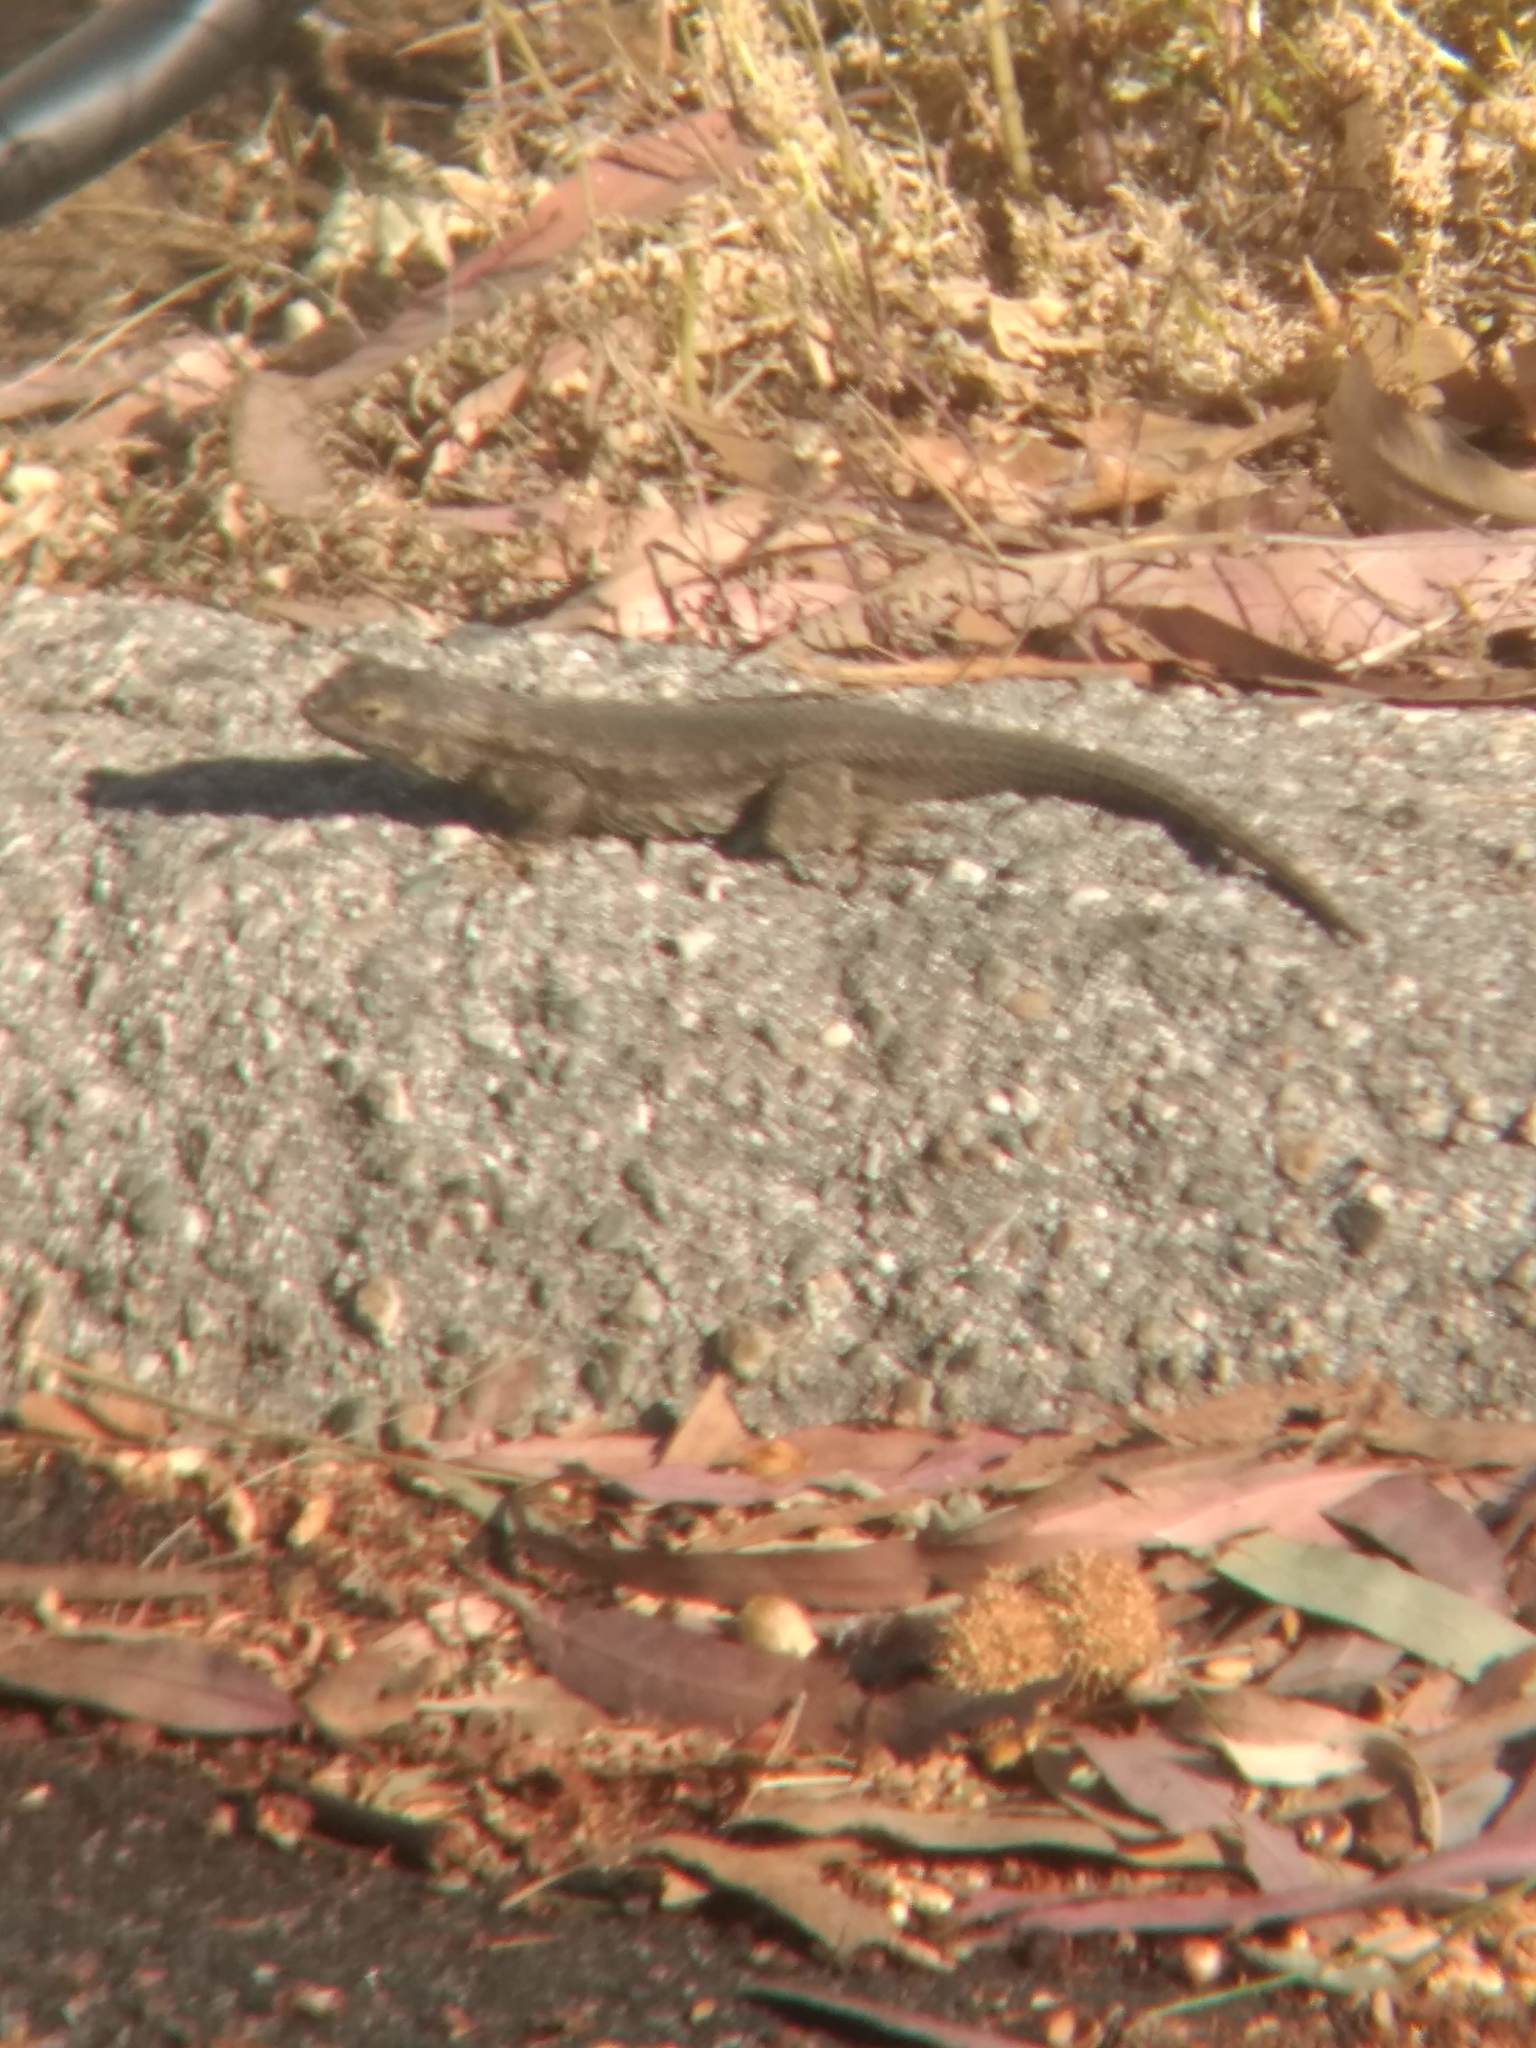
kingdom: Animalia
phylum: Chordata
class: Squamata
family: Phrynosomatidae
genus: Sceloporus
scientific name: Sceloporus occidentalis
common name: Western fence lizard
